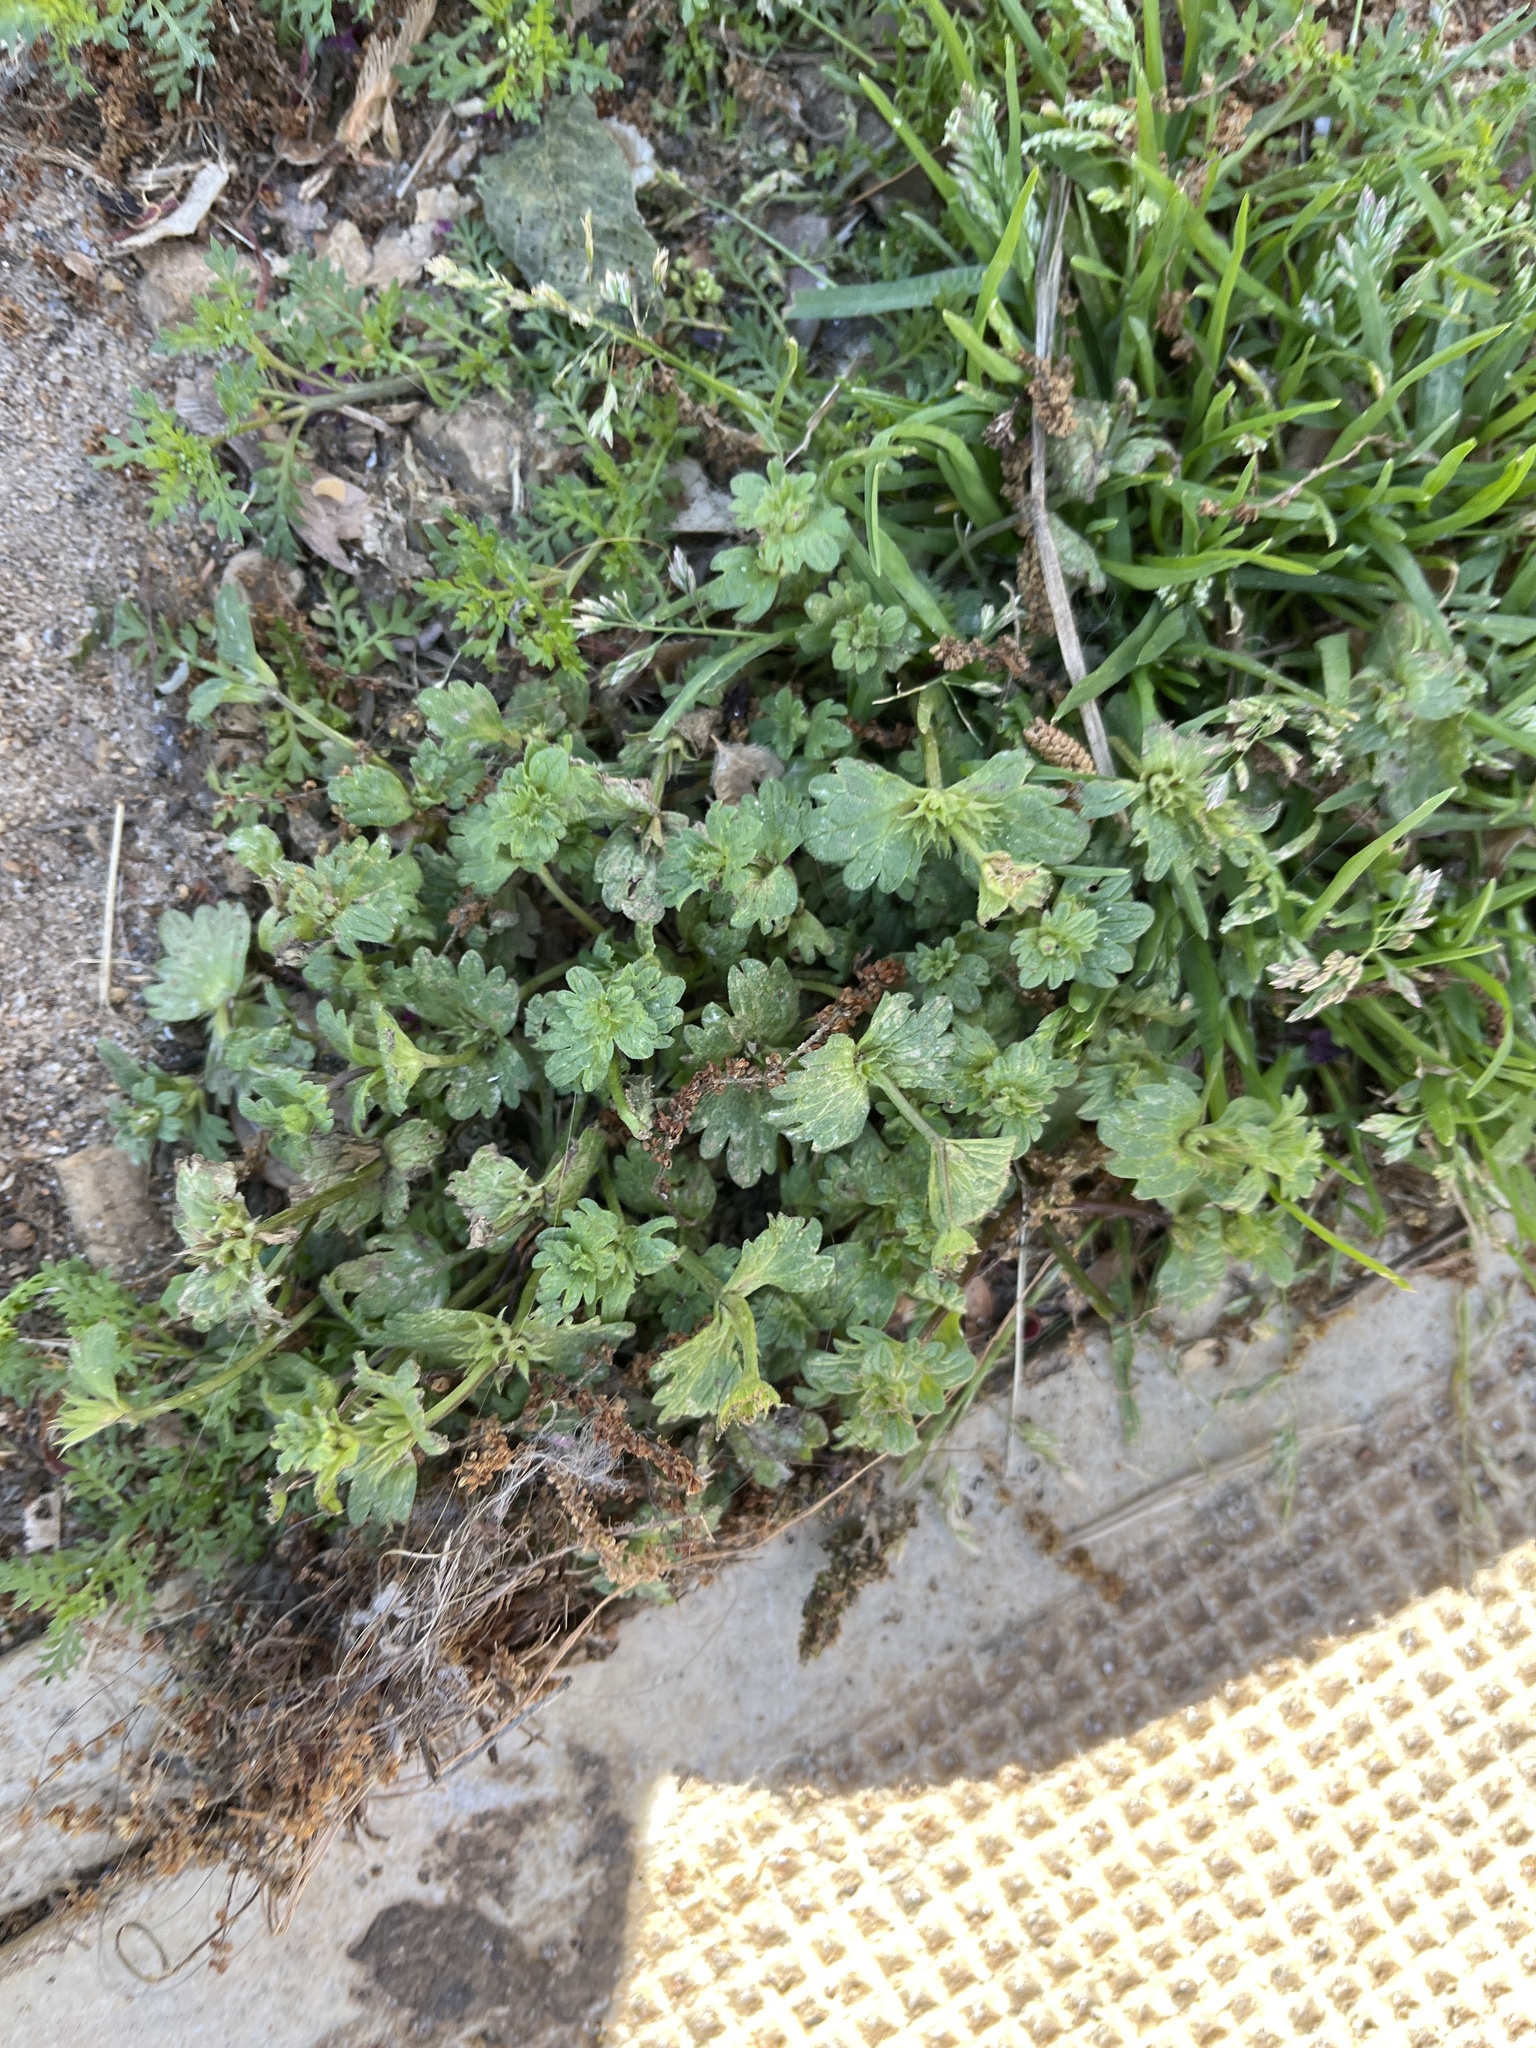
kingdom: Plantae
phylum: Tracheophyta
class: Magnoliopsida
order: Lamiales
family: Lamiaceae
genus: Lamium
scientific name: Lamium amplexicaule
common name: Henbit dead-nettle
